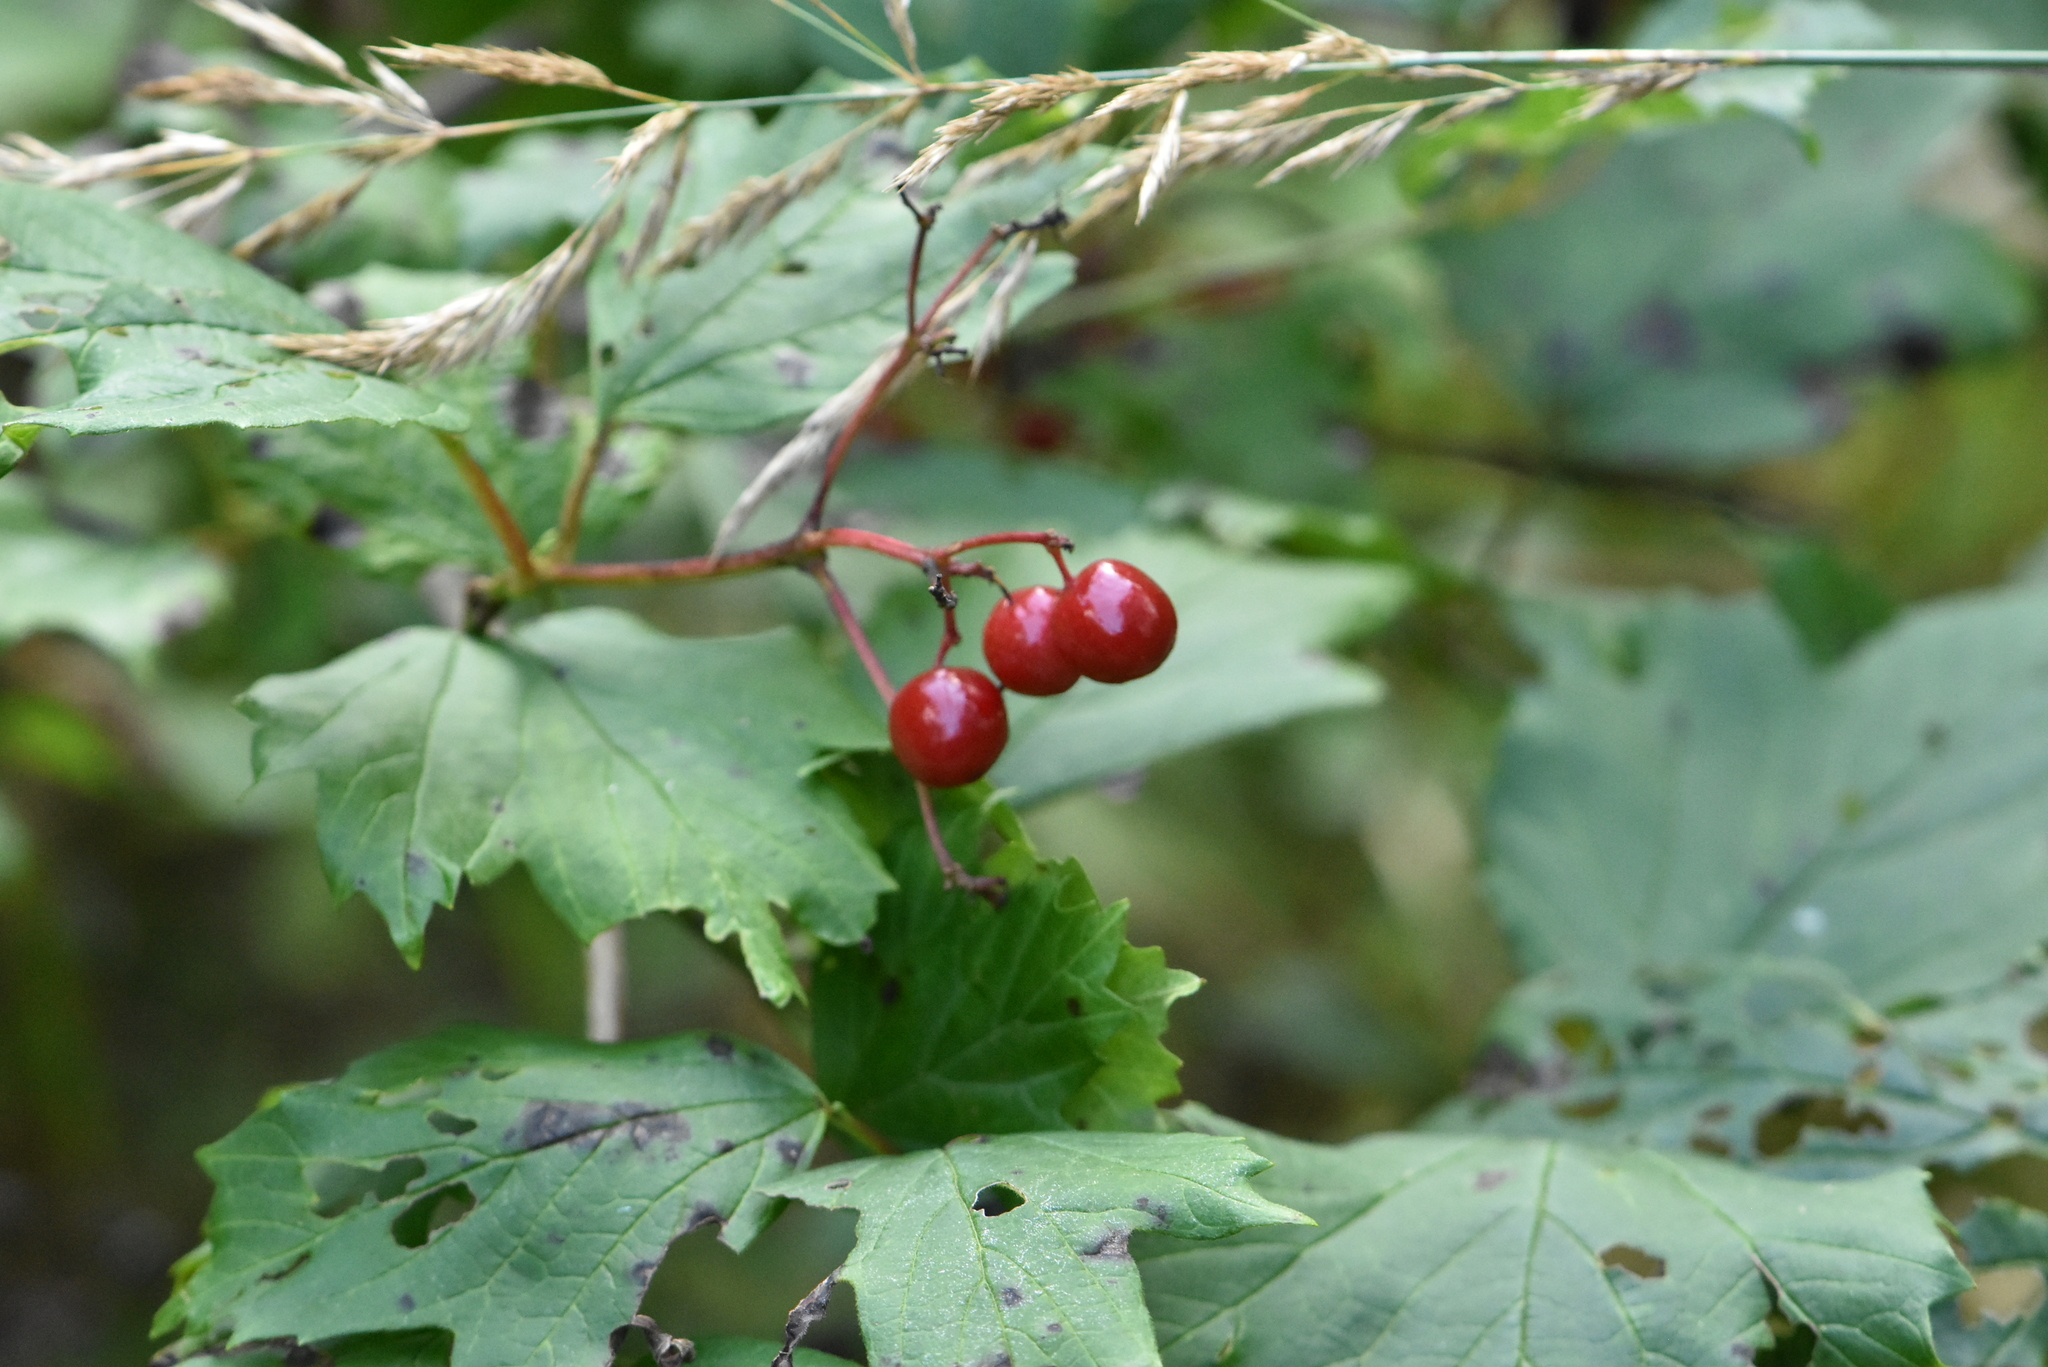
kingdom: Plantae
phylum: Tracheophyta
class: Magnoliopsida
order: Dipsacales
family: Viburnaceae
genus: Viburnum
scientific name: Viburnum opulus
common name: Guelder-rose
